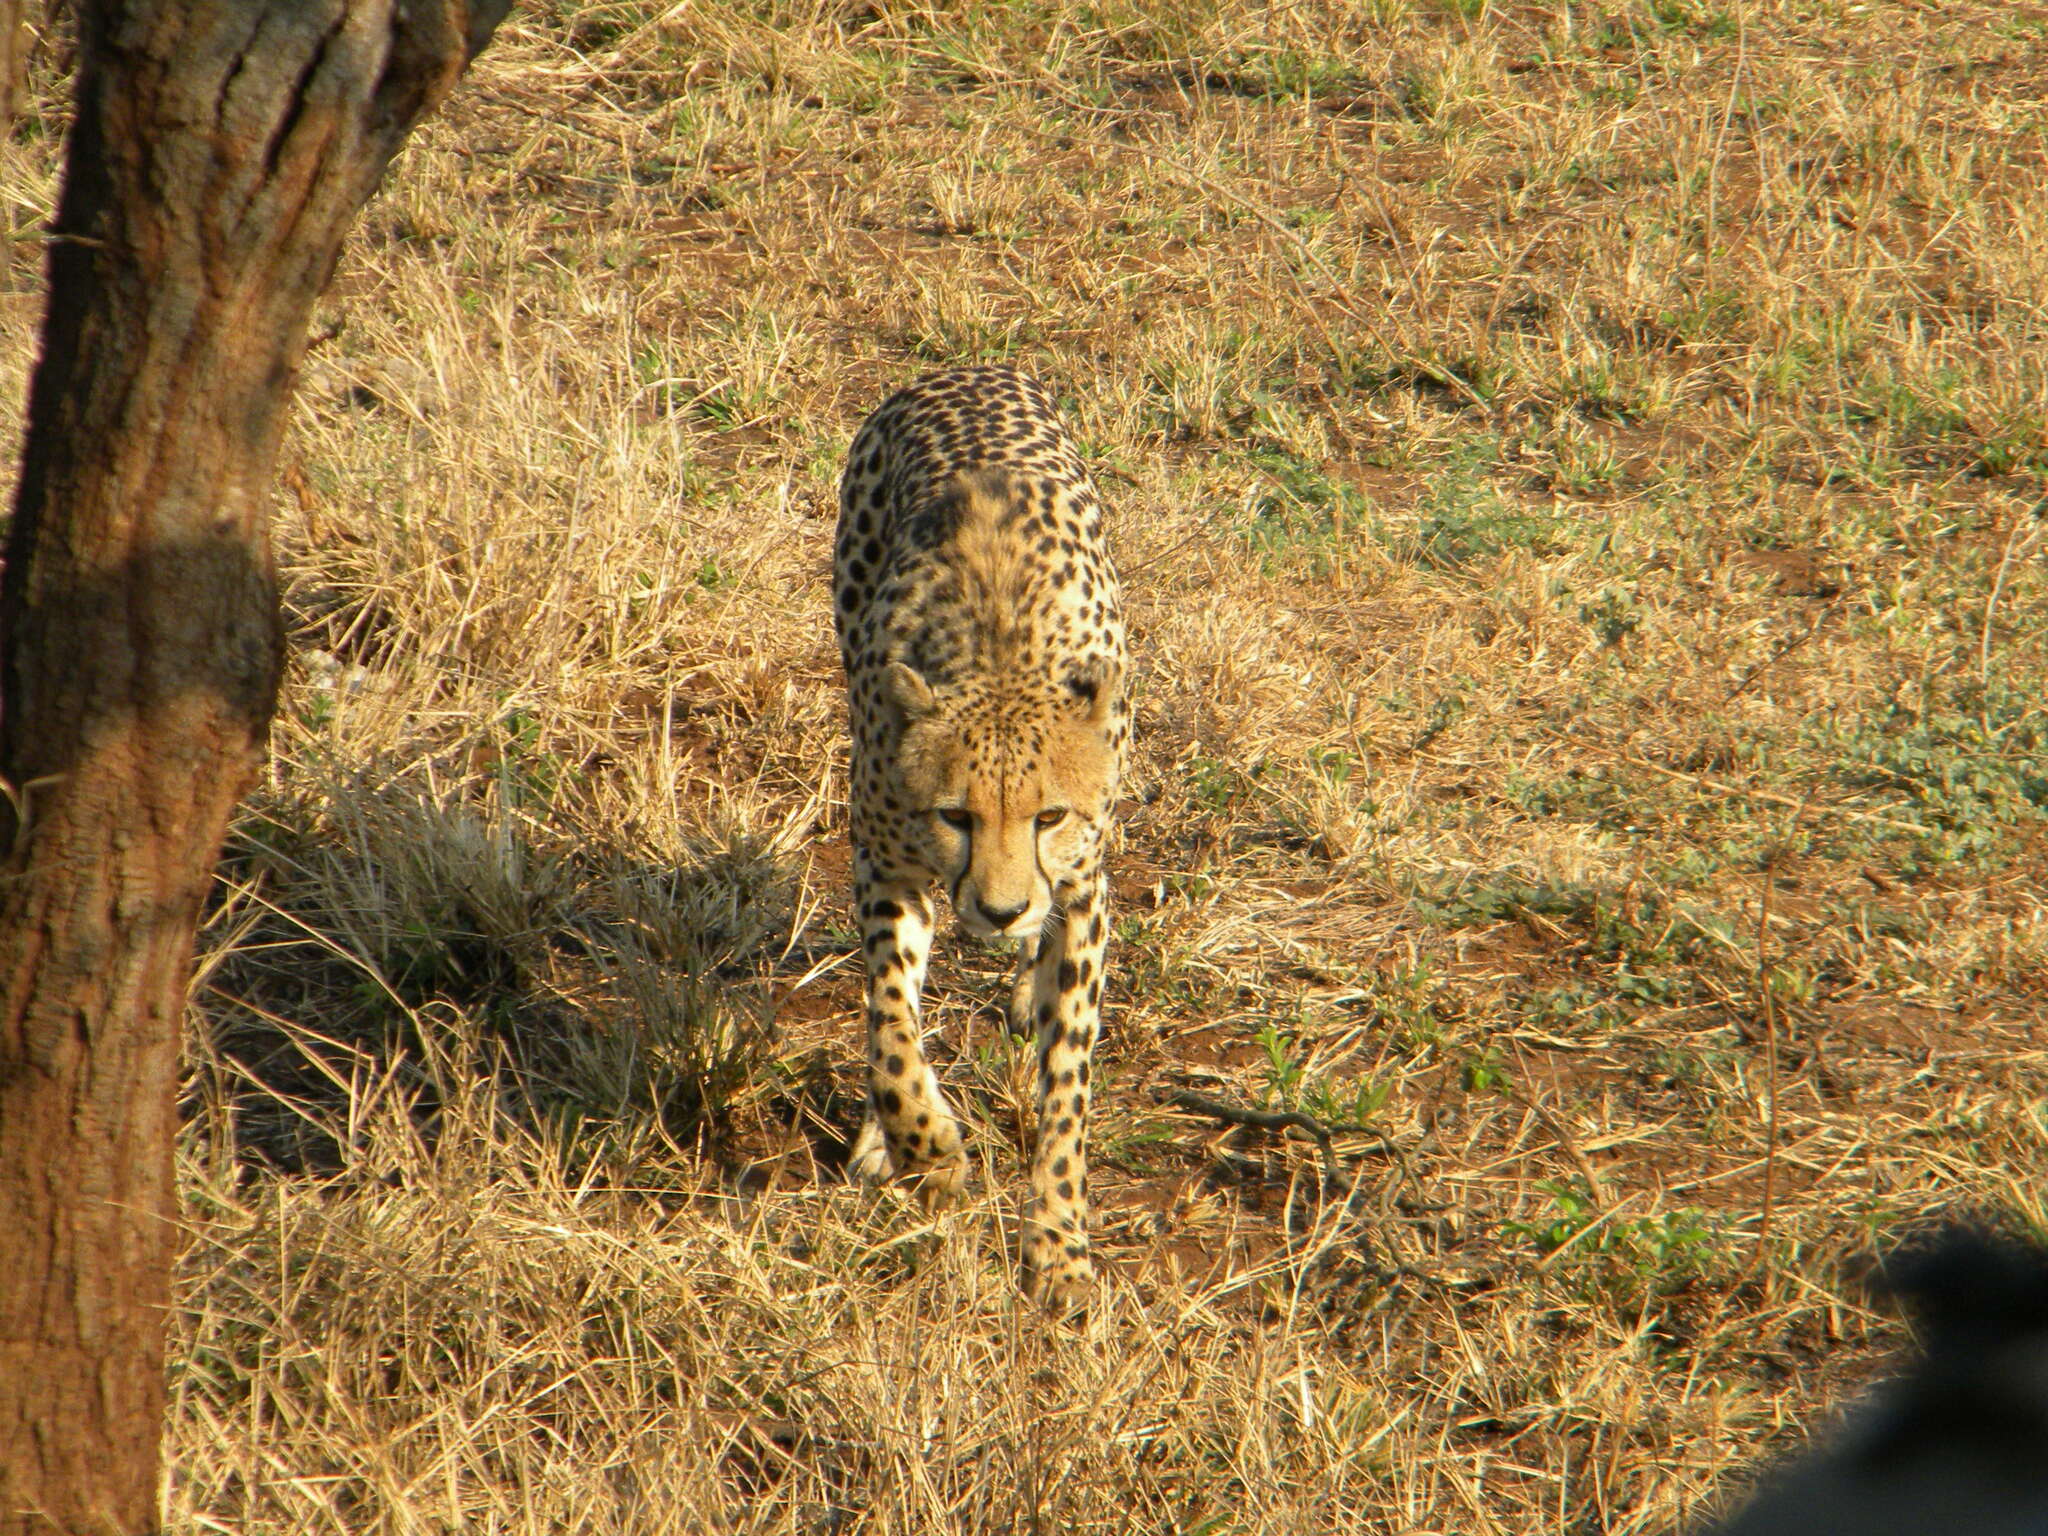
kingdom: Animalia
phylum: Chordata
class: Mammalia
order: Carnivora
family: Felidae
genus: Acinonyx
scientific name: Acinonyx jubatus
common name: Cheetah
